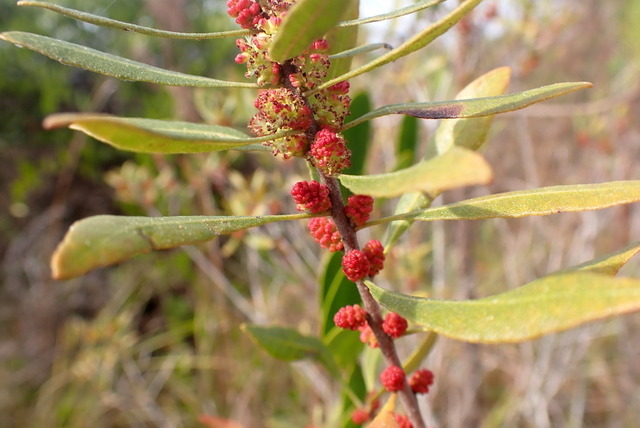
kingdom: Plantae
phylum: Tracheophyta
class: Magnoliopsida
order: Fagales
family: Myricaceae
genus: Morella
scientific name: Morella cerifera
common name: Wax myrtle
